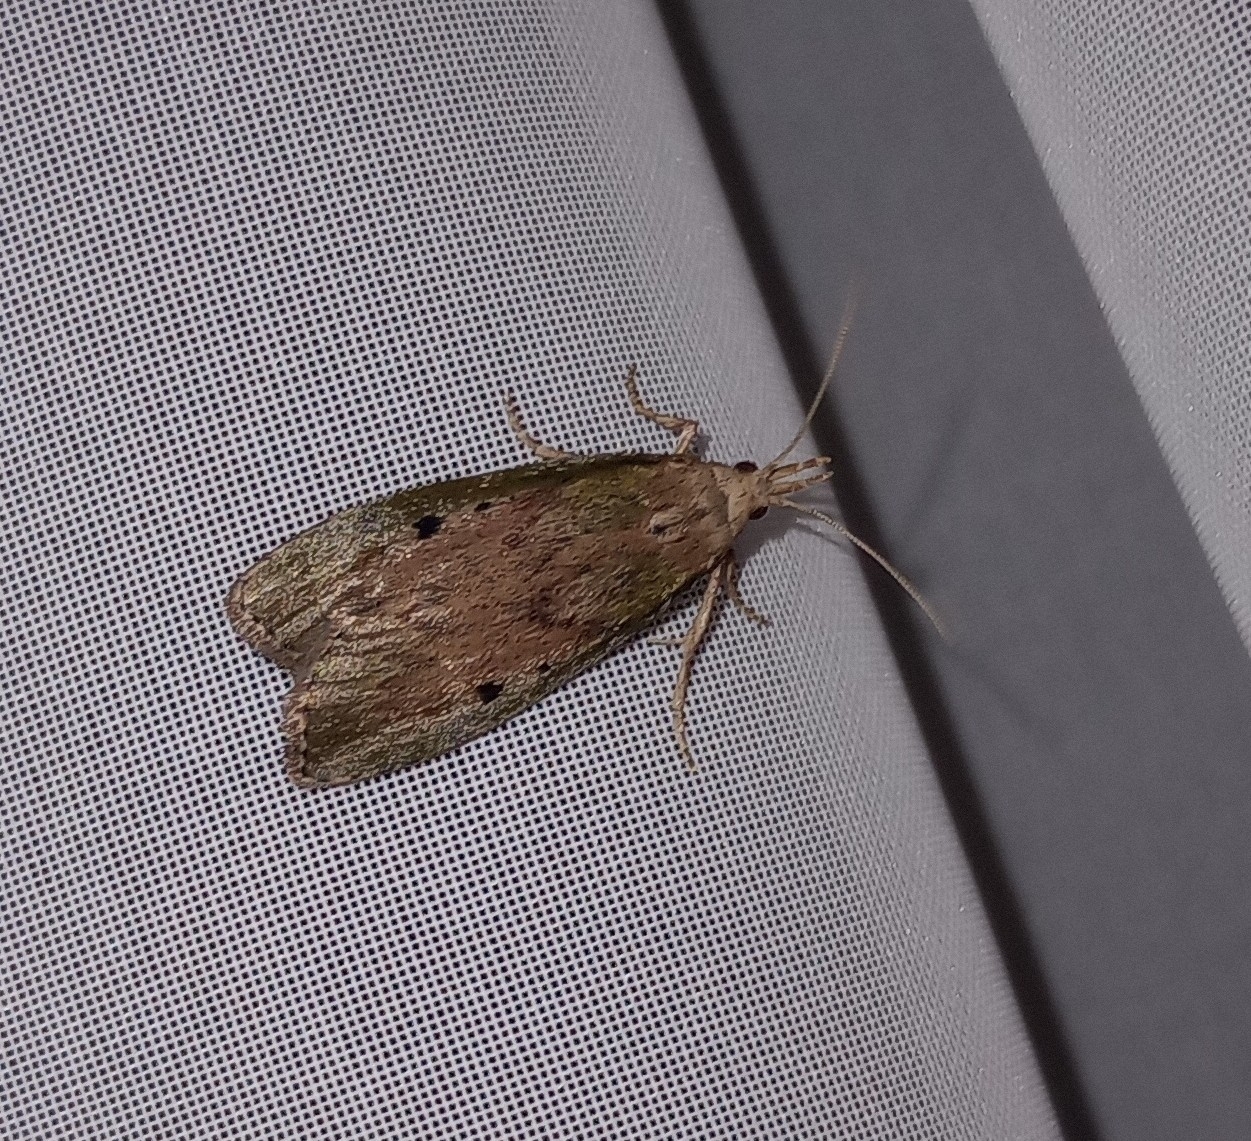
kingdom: Animalia
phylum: Arthropoda
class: Insecta
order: Lepidoptera
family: Pyralidae
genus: Aphomia
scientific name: Aphomia sociella
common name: Bee moth
